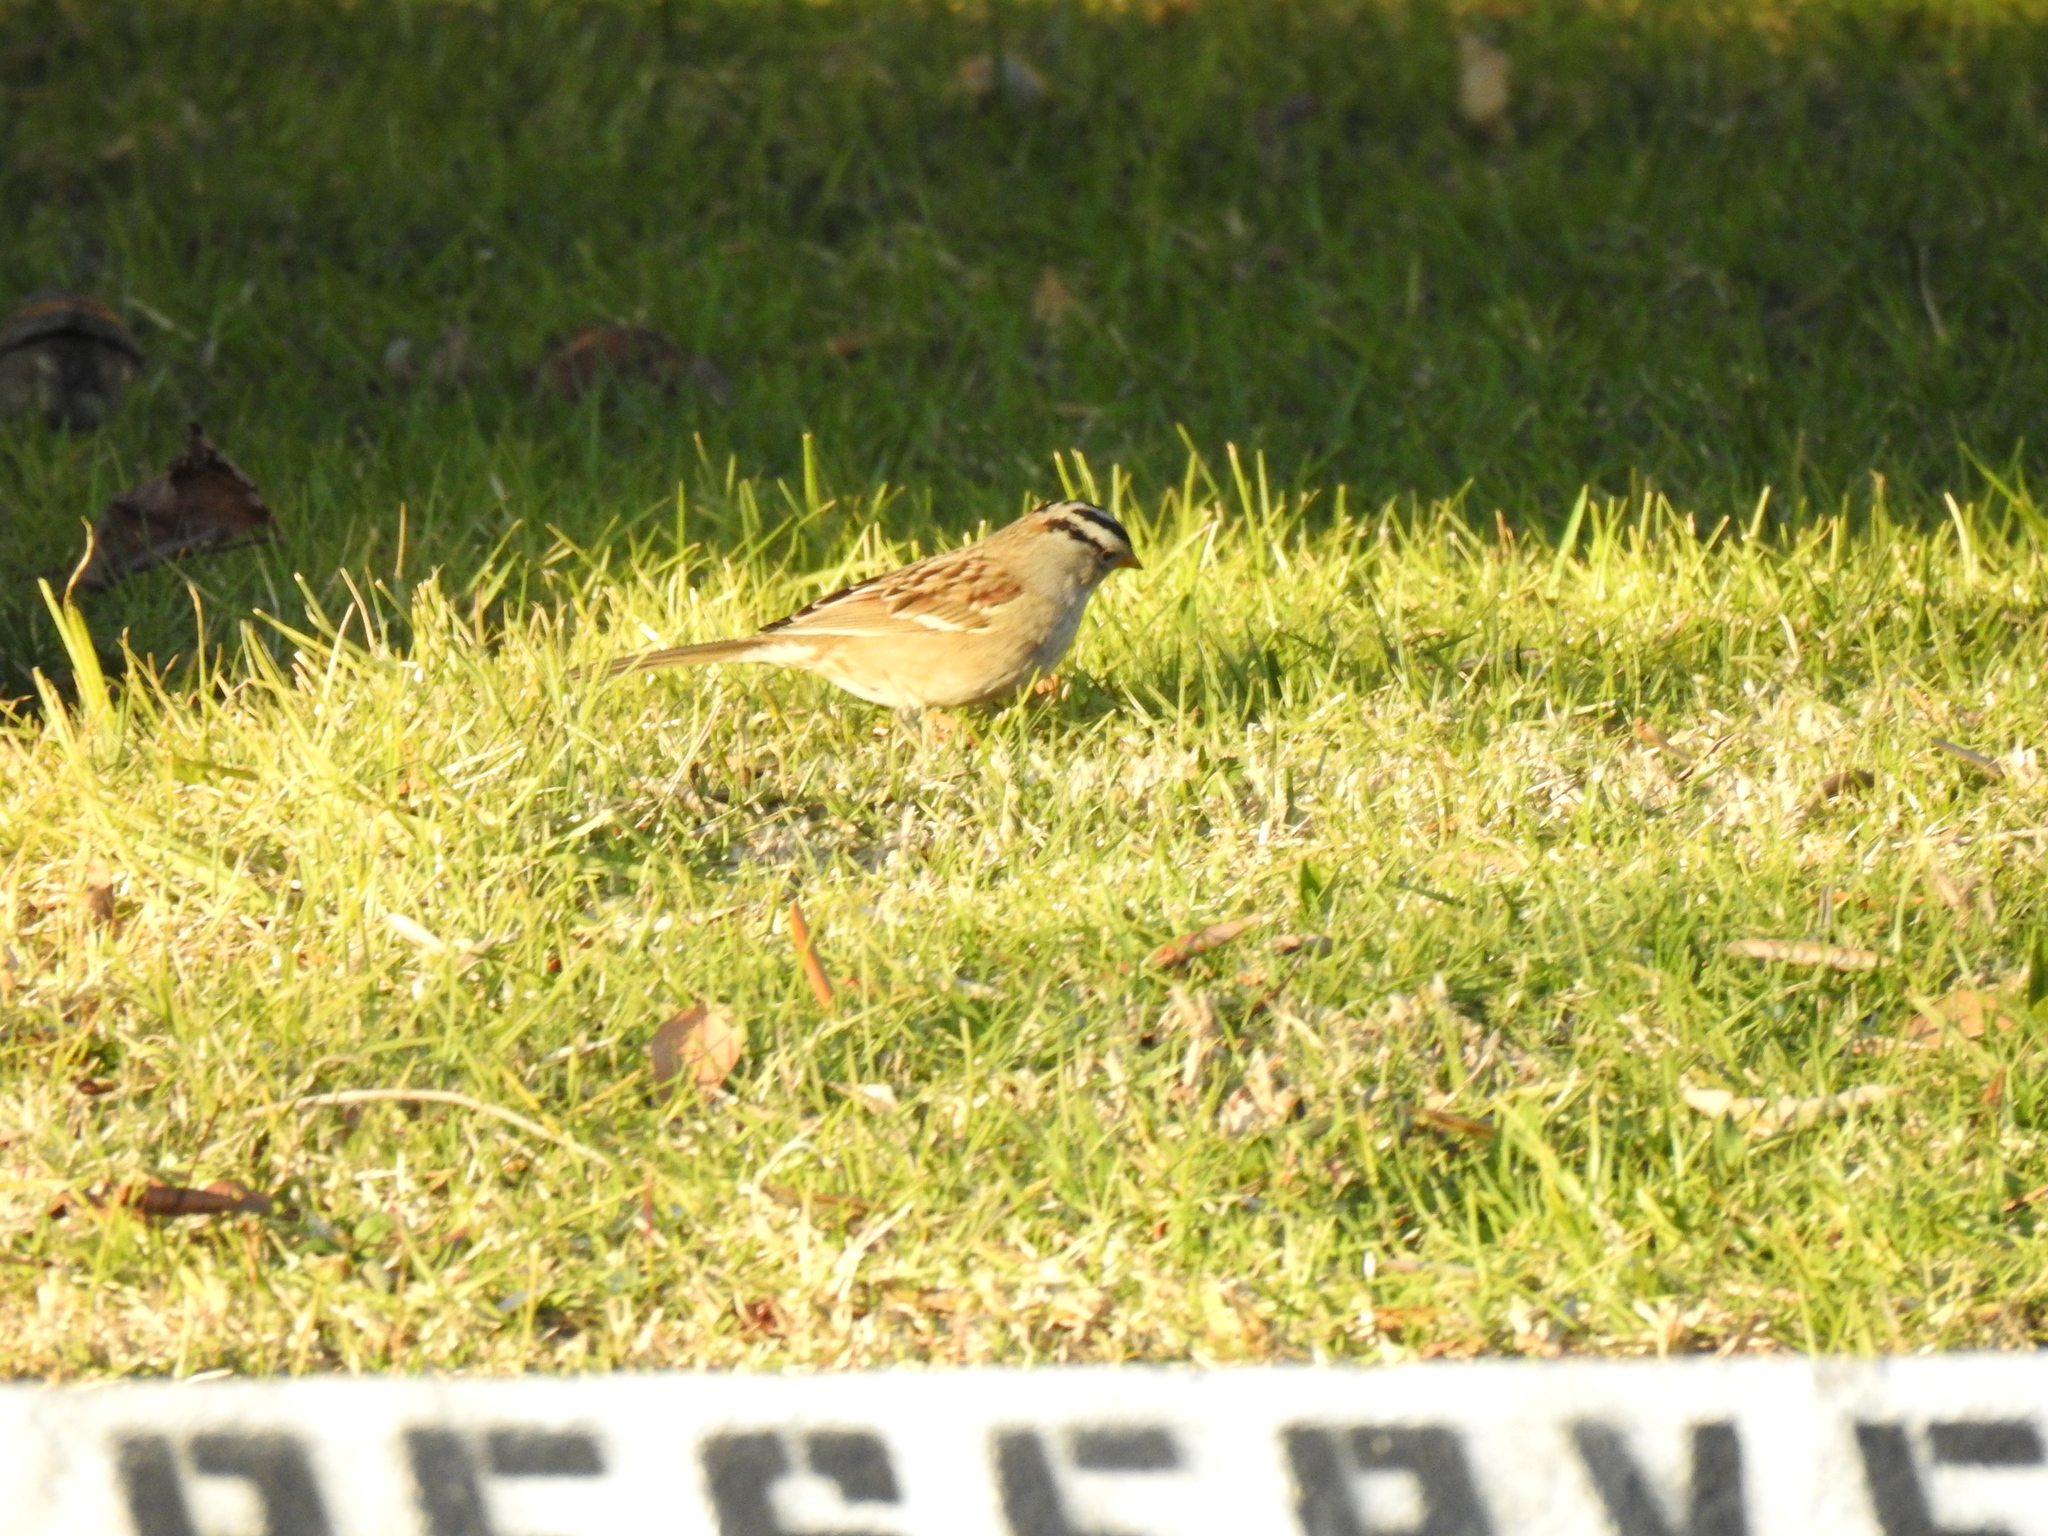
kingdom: Animalia
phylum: Chordata
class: Aves
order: Passeriformes
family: Passerellidae
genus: Zonotrichia
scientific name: Zonotrichia leucophrys
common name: White-crowned sparrow
